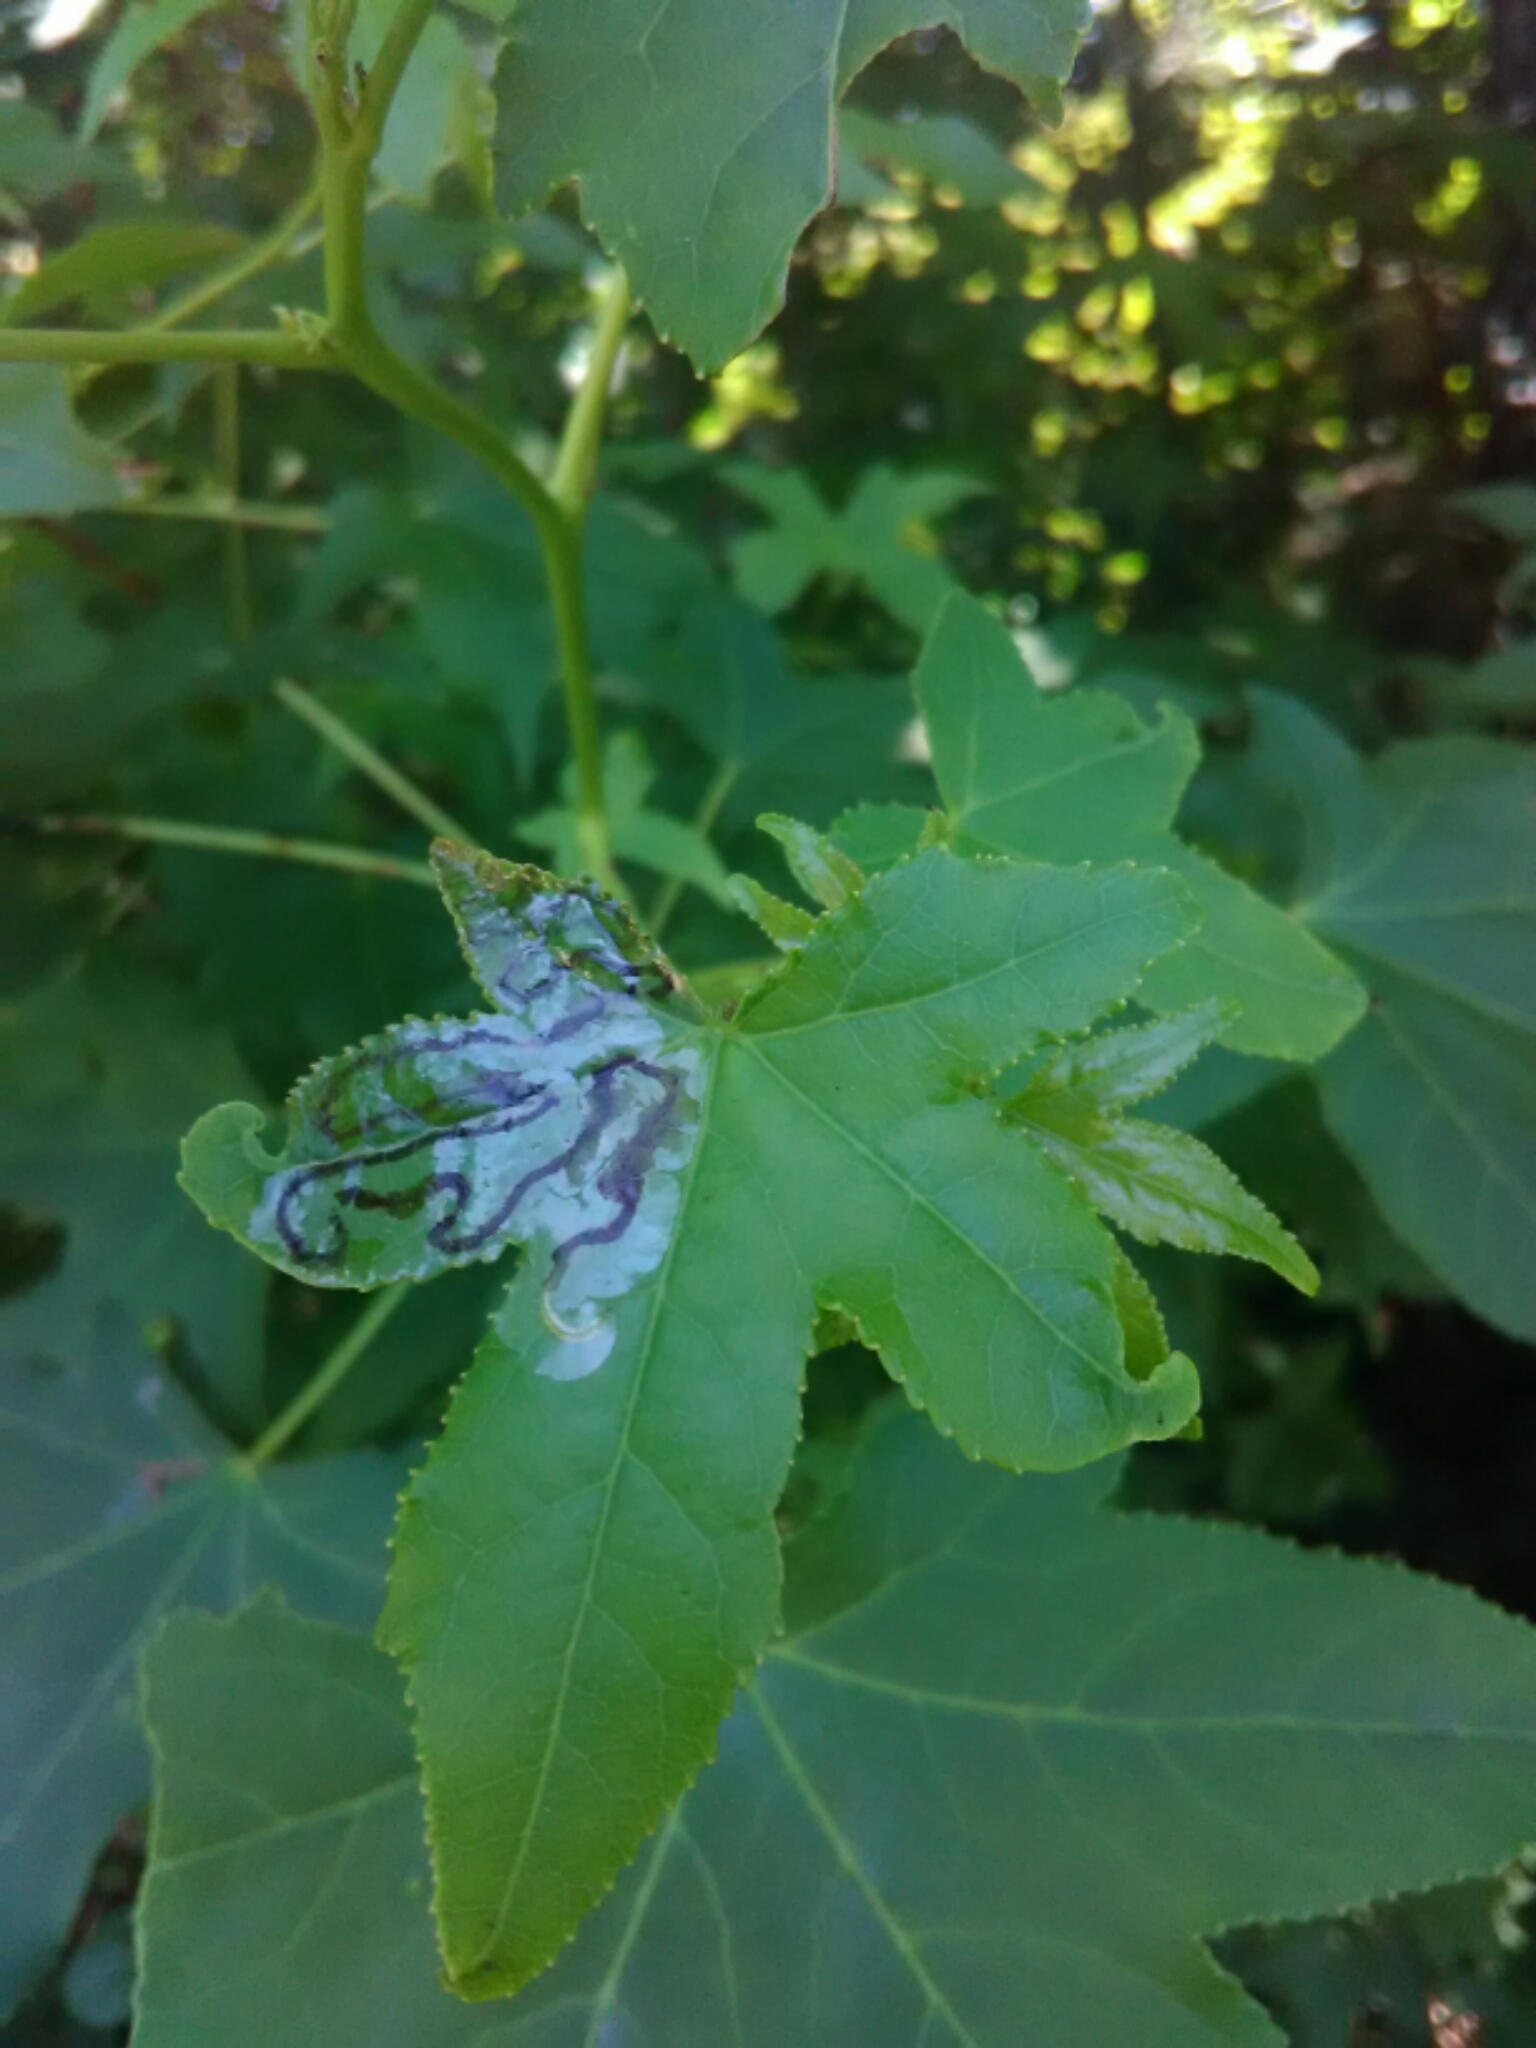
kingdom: Animalia
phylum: Arthropoda
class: Insecta
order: Lepidoptera
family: Gracillariidae
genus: Phyllocnistis
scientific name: Phyllocnistis liquidambarisella
